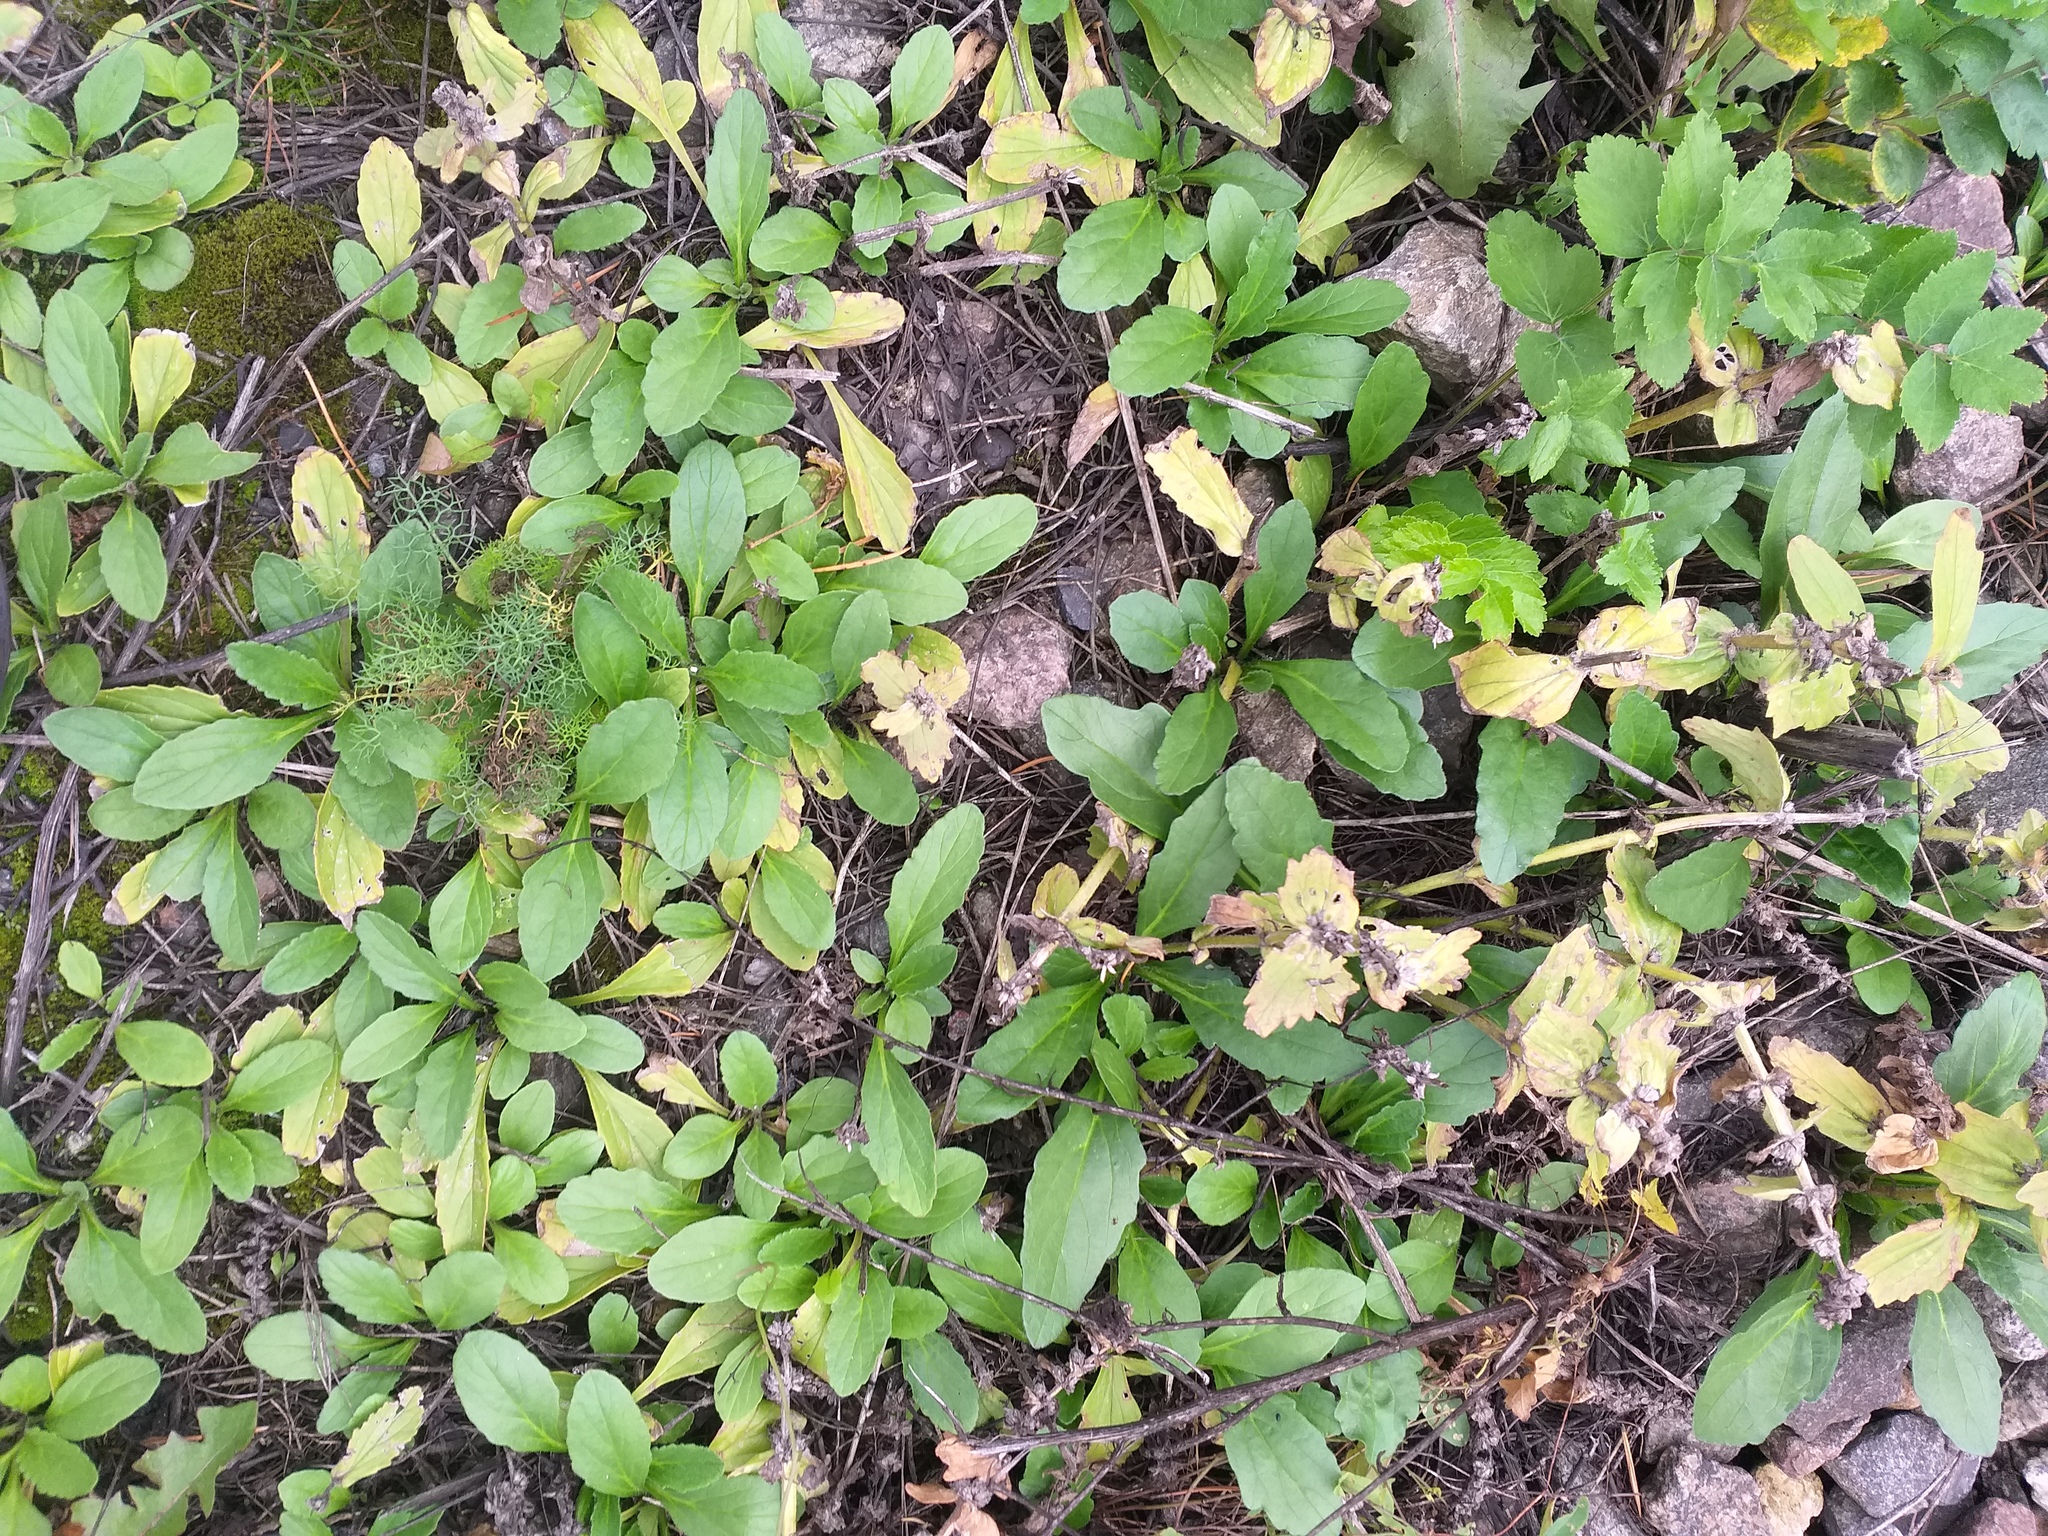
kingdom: Plantae
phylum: Tracheophyta
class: Magnoliopsida
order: Lamiales
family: Lamiaceae
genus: Ajuga
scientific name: Ajuga genevensis
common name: Blue bugle
